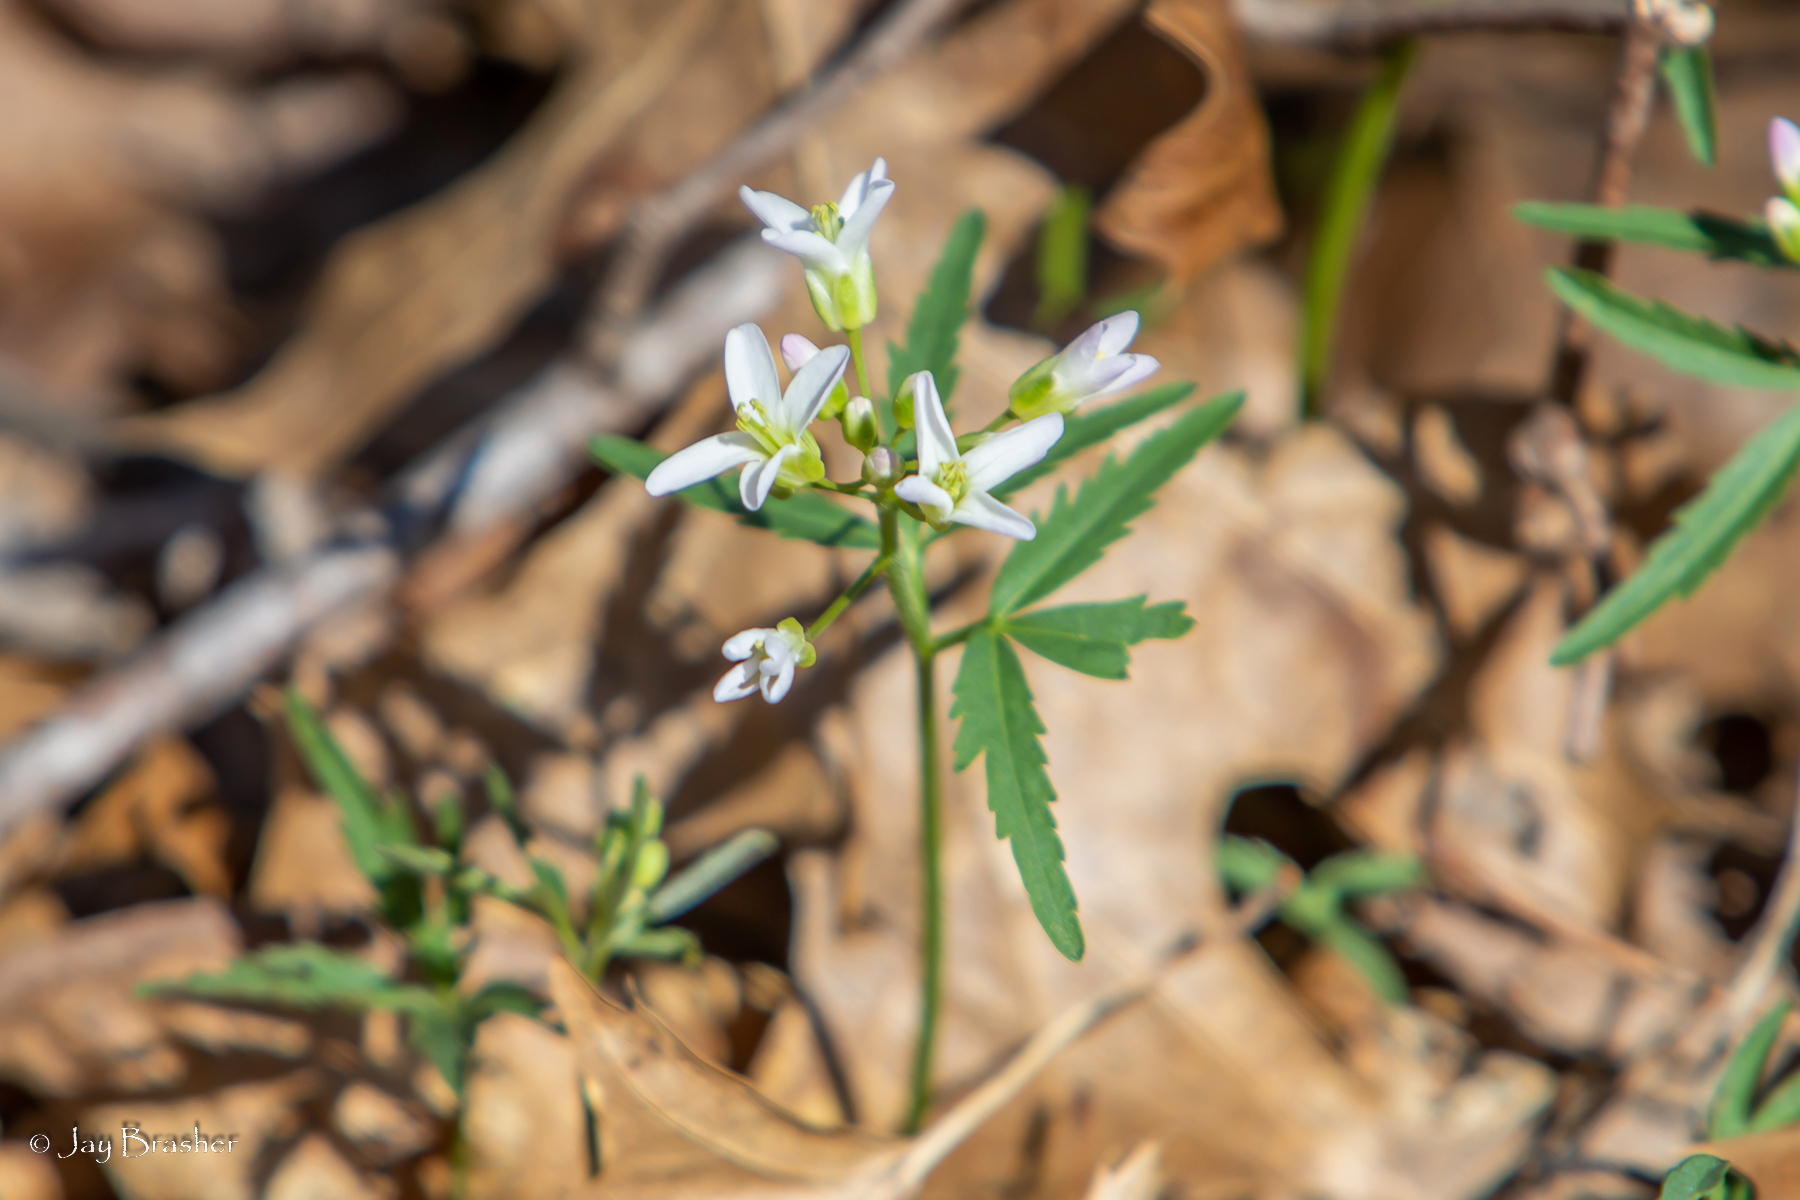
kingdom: Plantae
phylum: Tracheophyta
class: Magnoliopsida
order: Brassicales
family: Brassicaceae
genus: Cardamine
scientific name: Cardamine concatenata
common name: Cut-leaf toothcup
